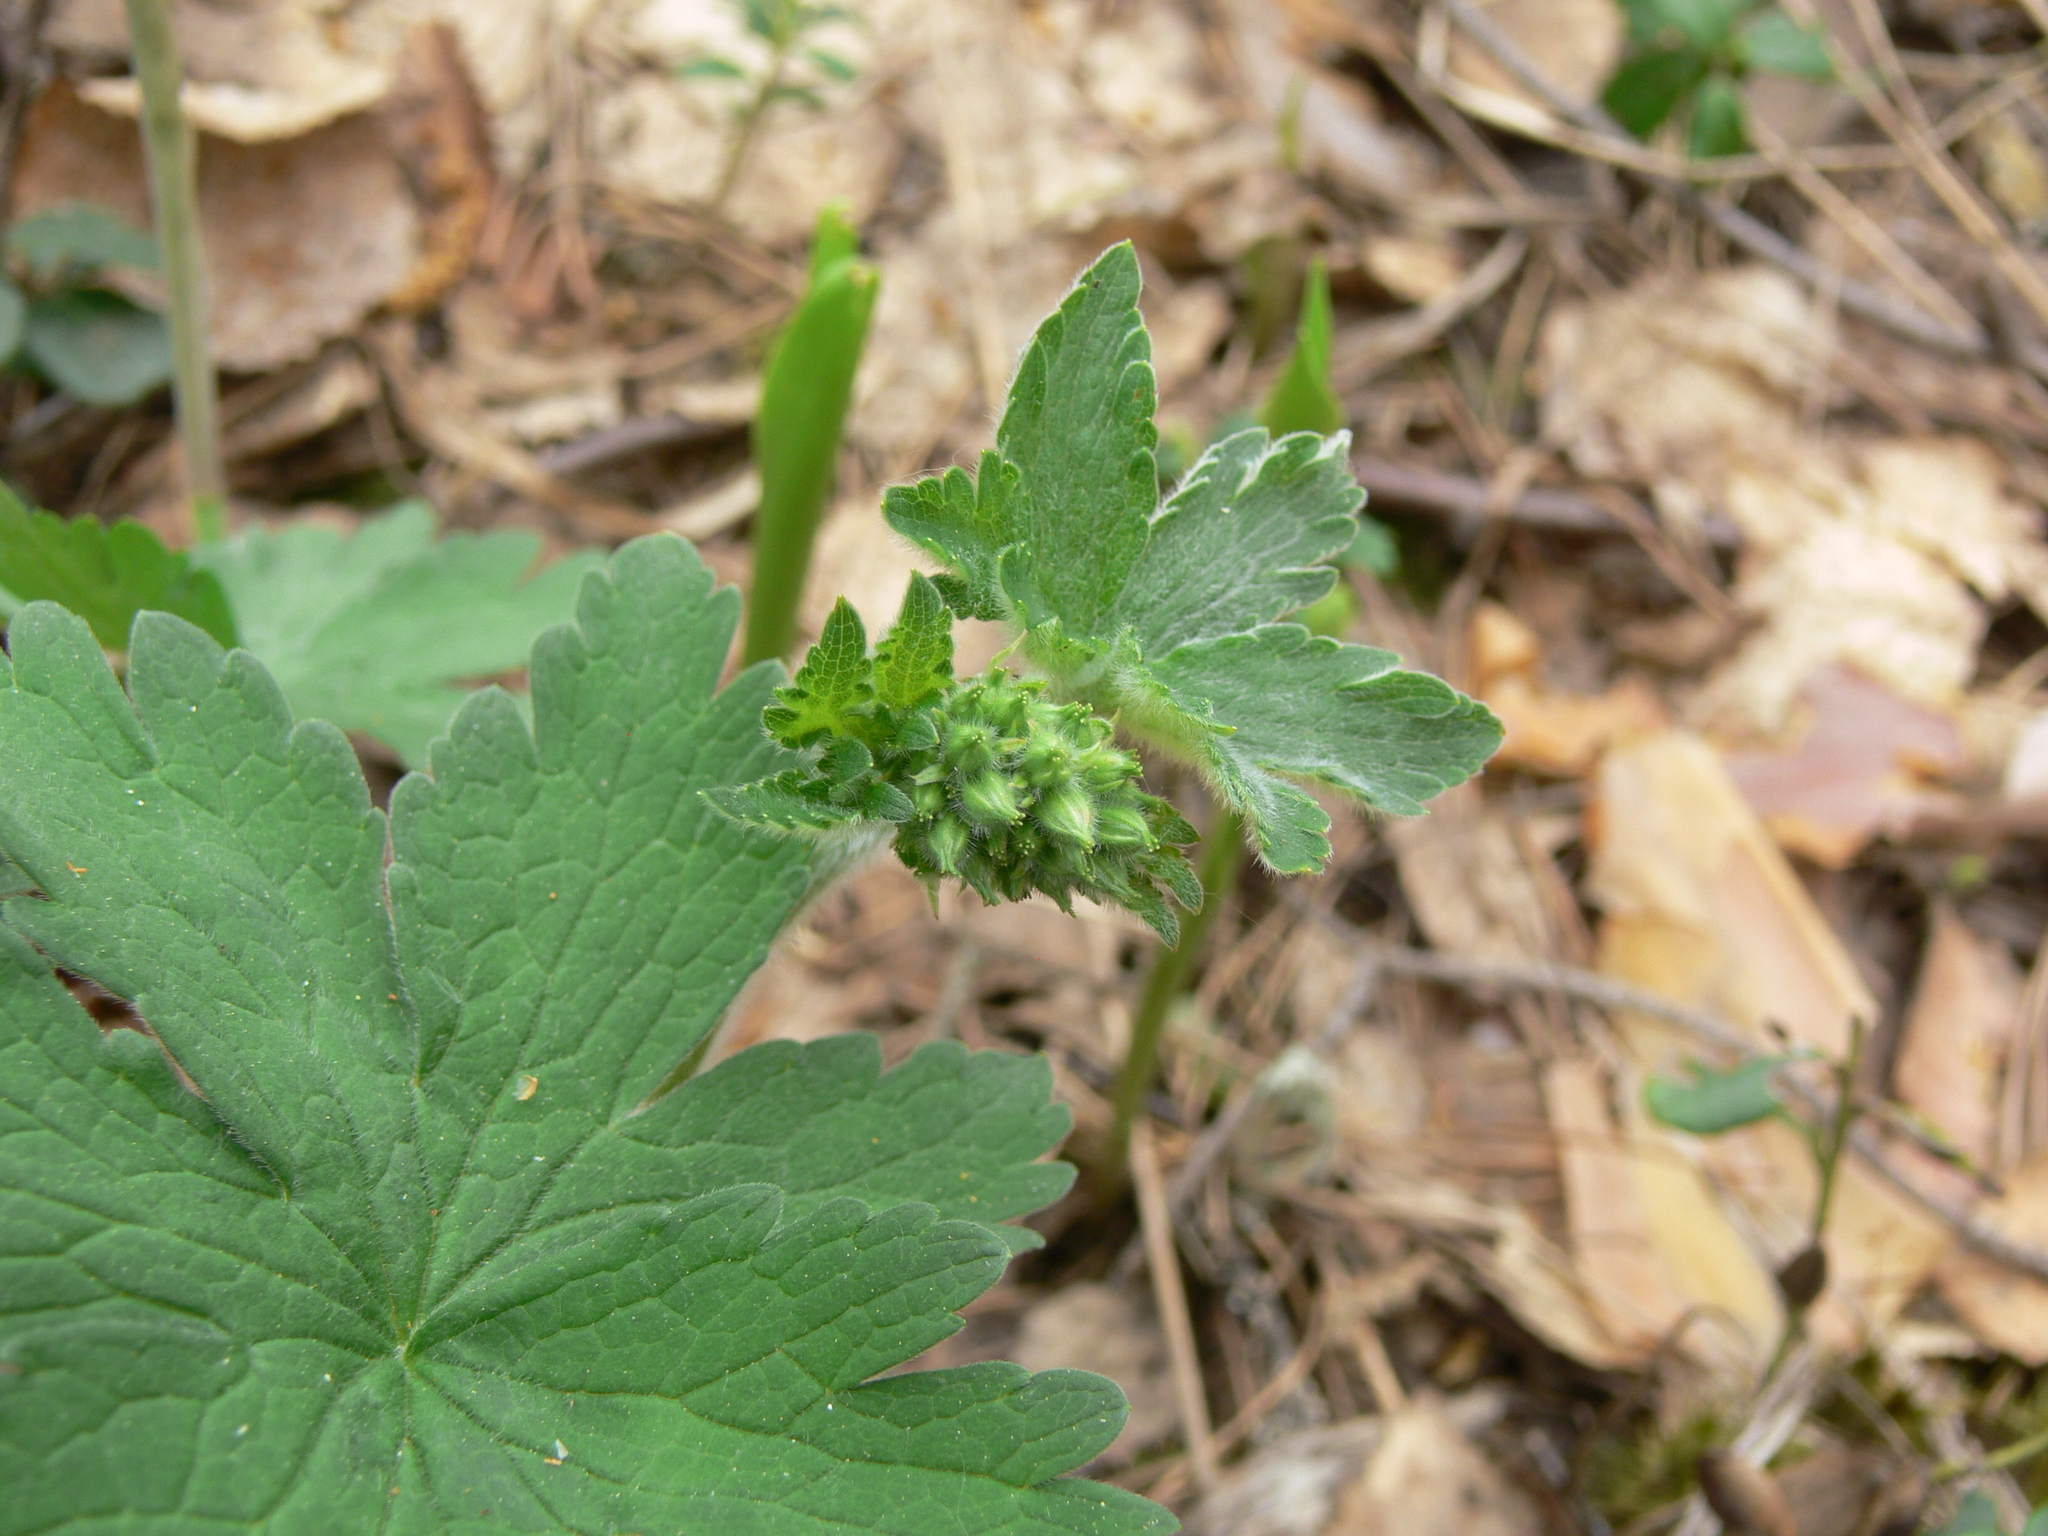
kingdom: Plantae
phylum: Tracheophyta
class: Magnoliopsida
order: Geraniales
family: Geraniaceae
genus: Geranium
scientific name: Geranium sylvaticum
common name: Wood crane's-bill
